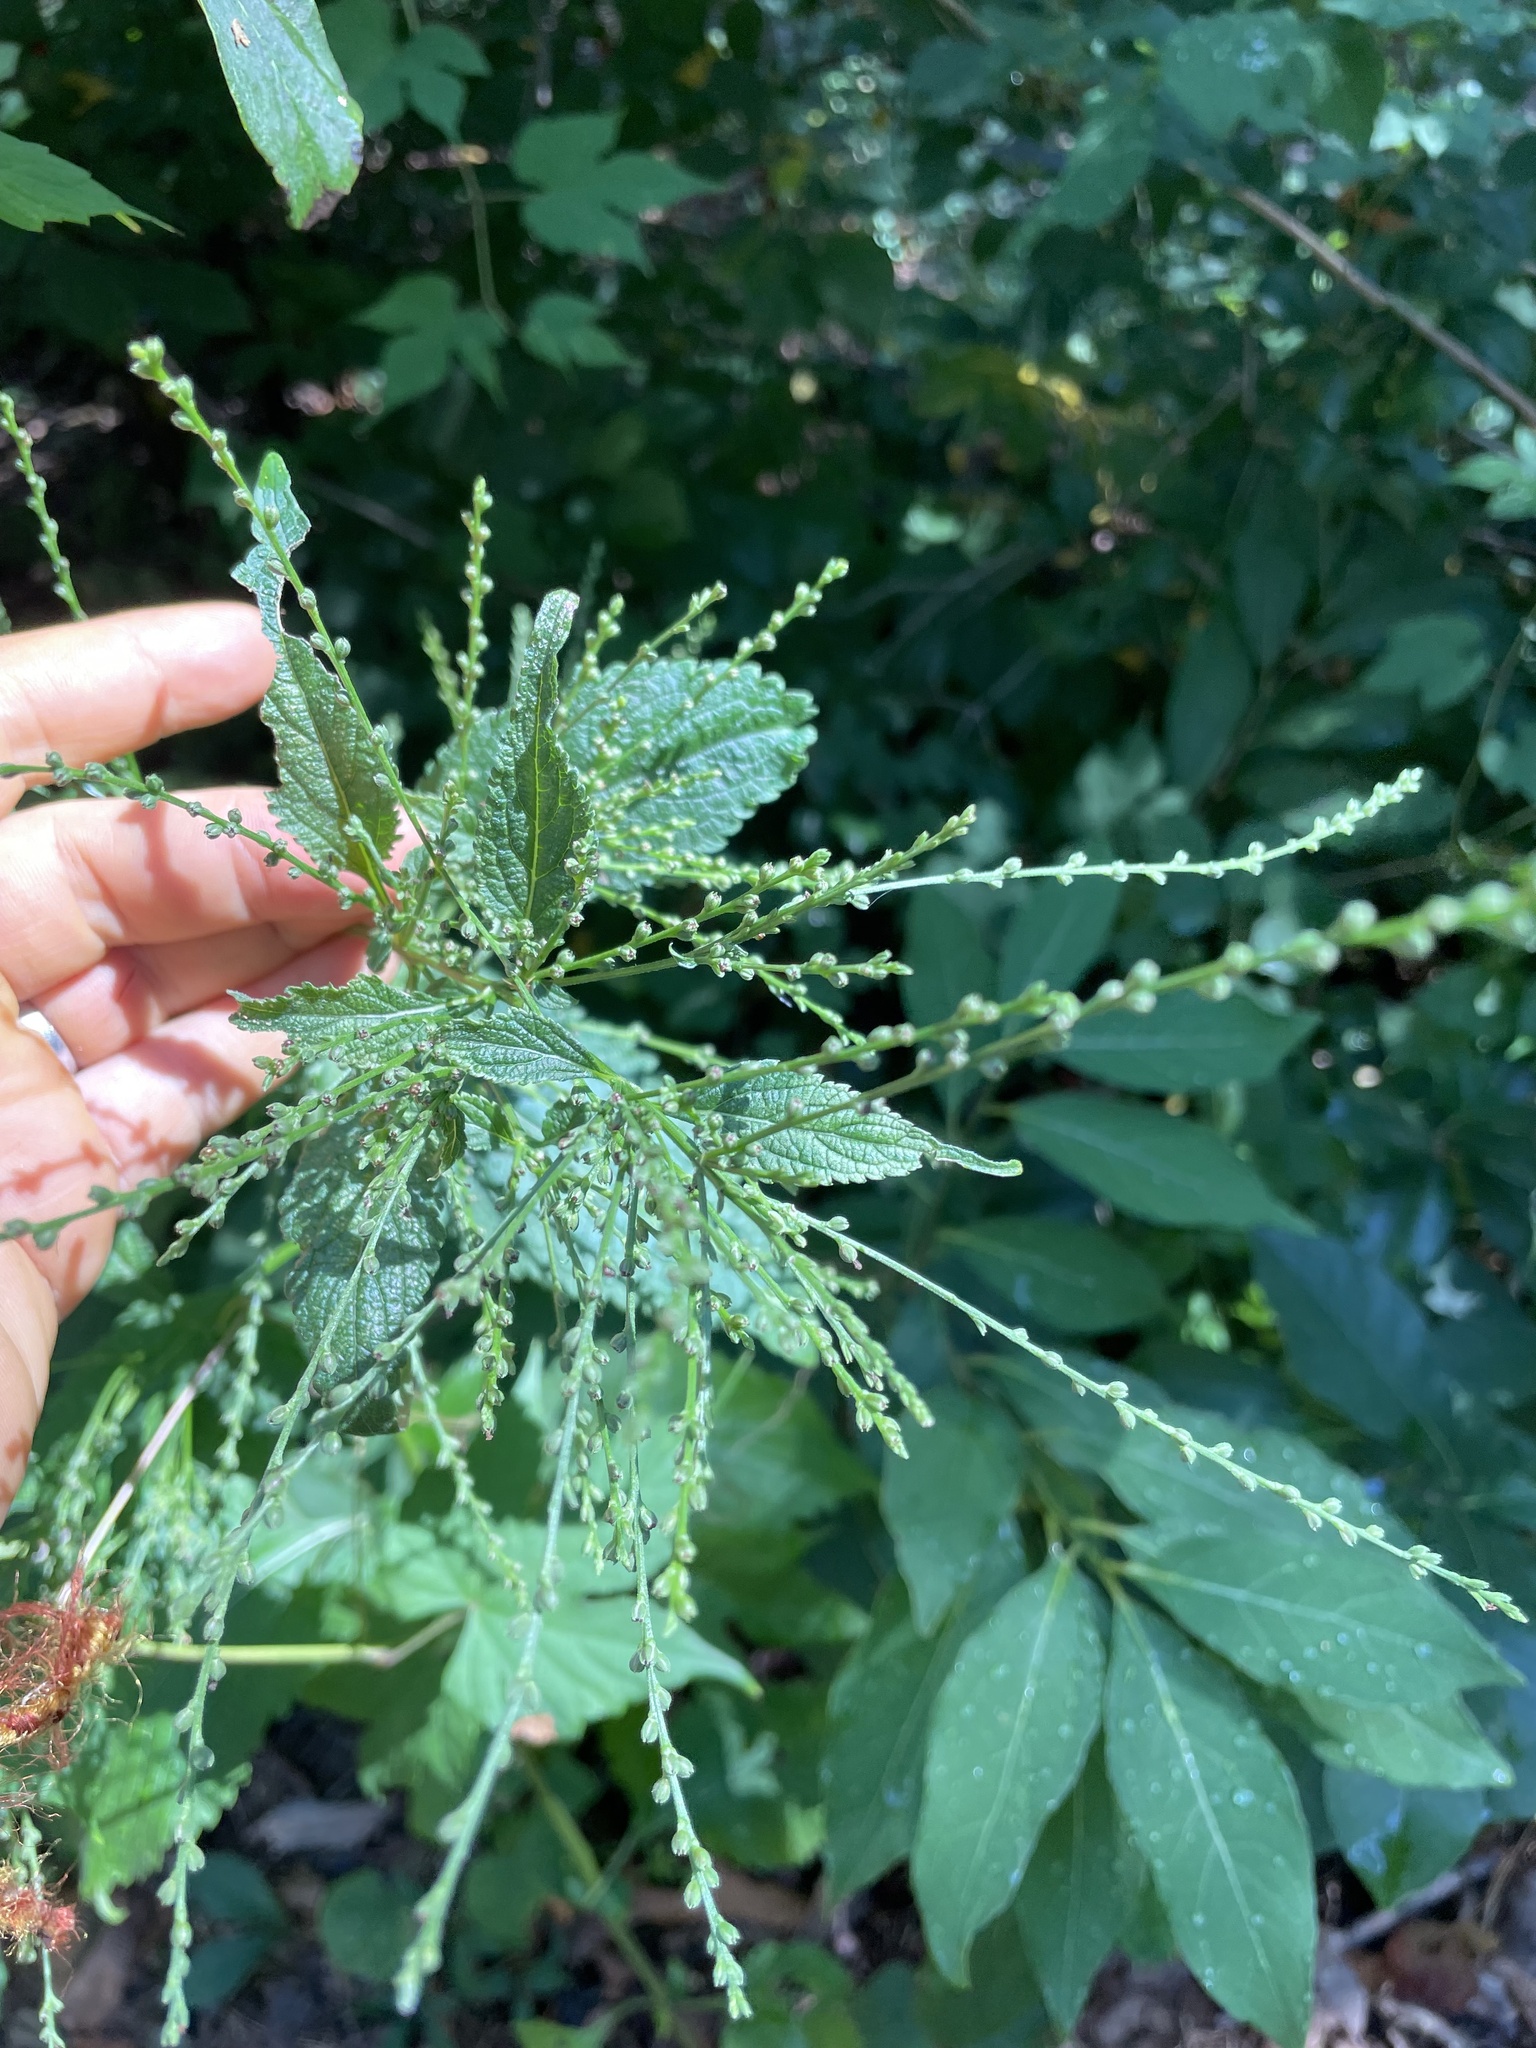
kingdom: Plantae
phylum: Tracheophyta
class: Magnoliopsida
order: Lamiales
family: Verbenaceae
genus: Verbena
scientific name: Verbena urticifolia
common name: Nettle-leaved vervain
